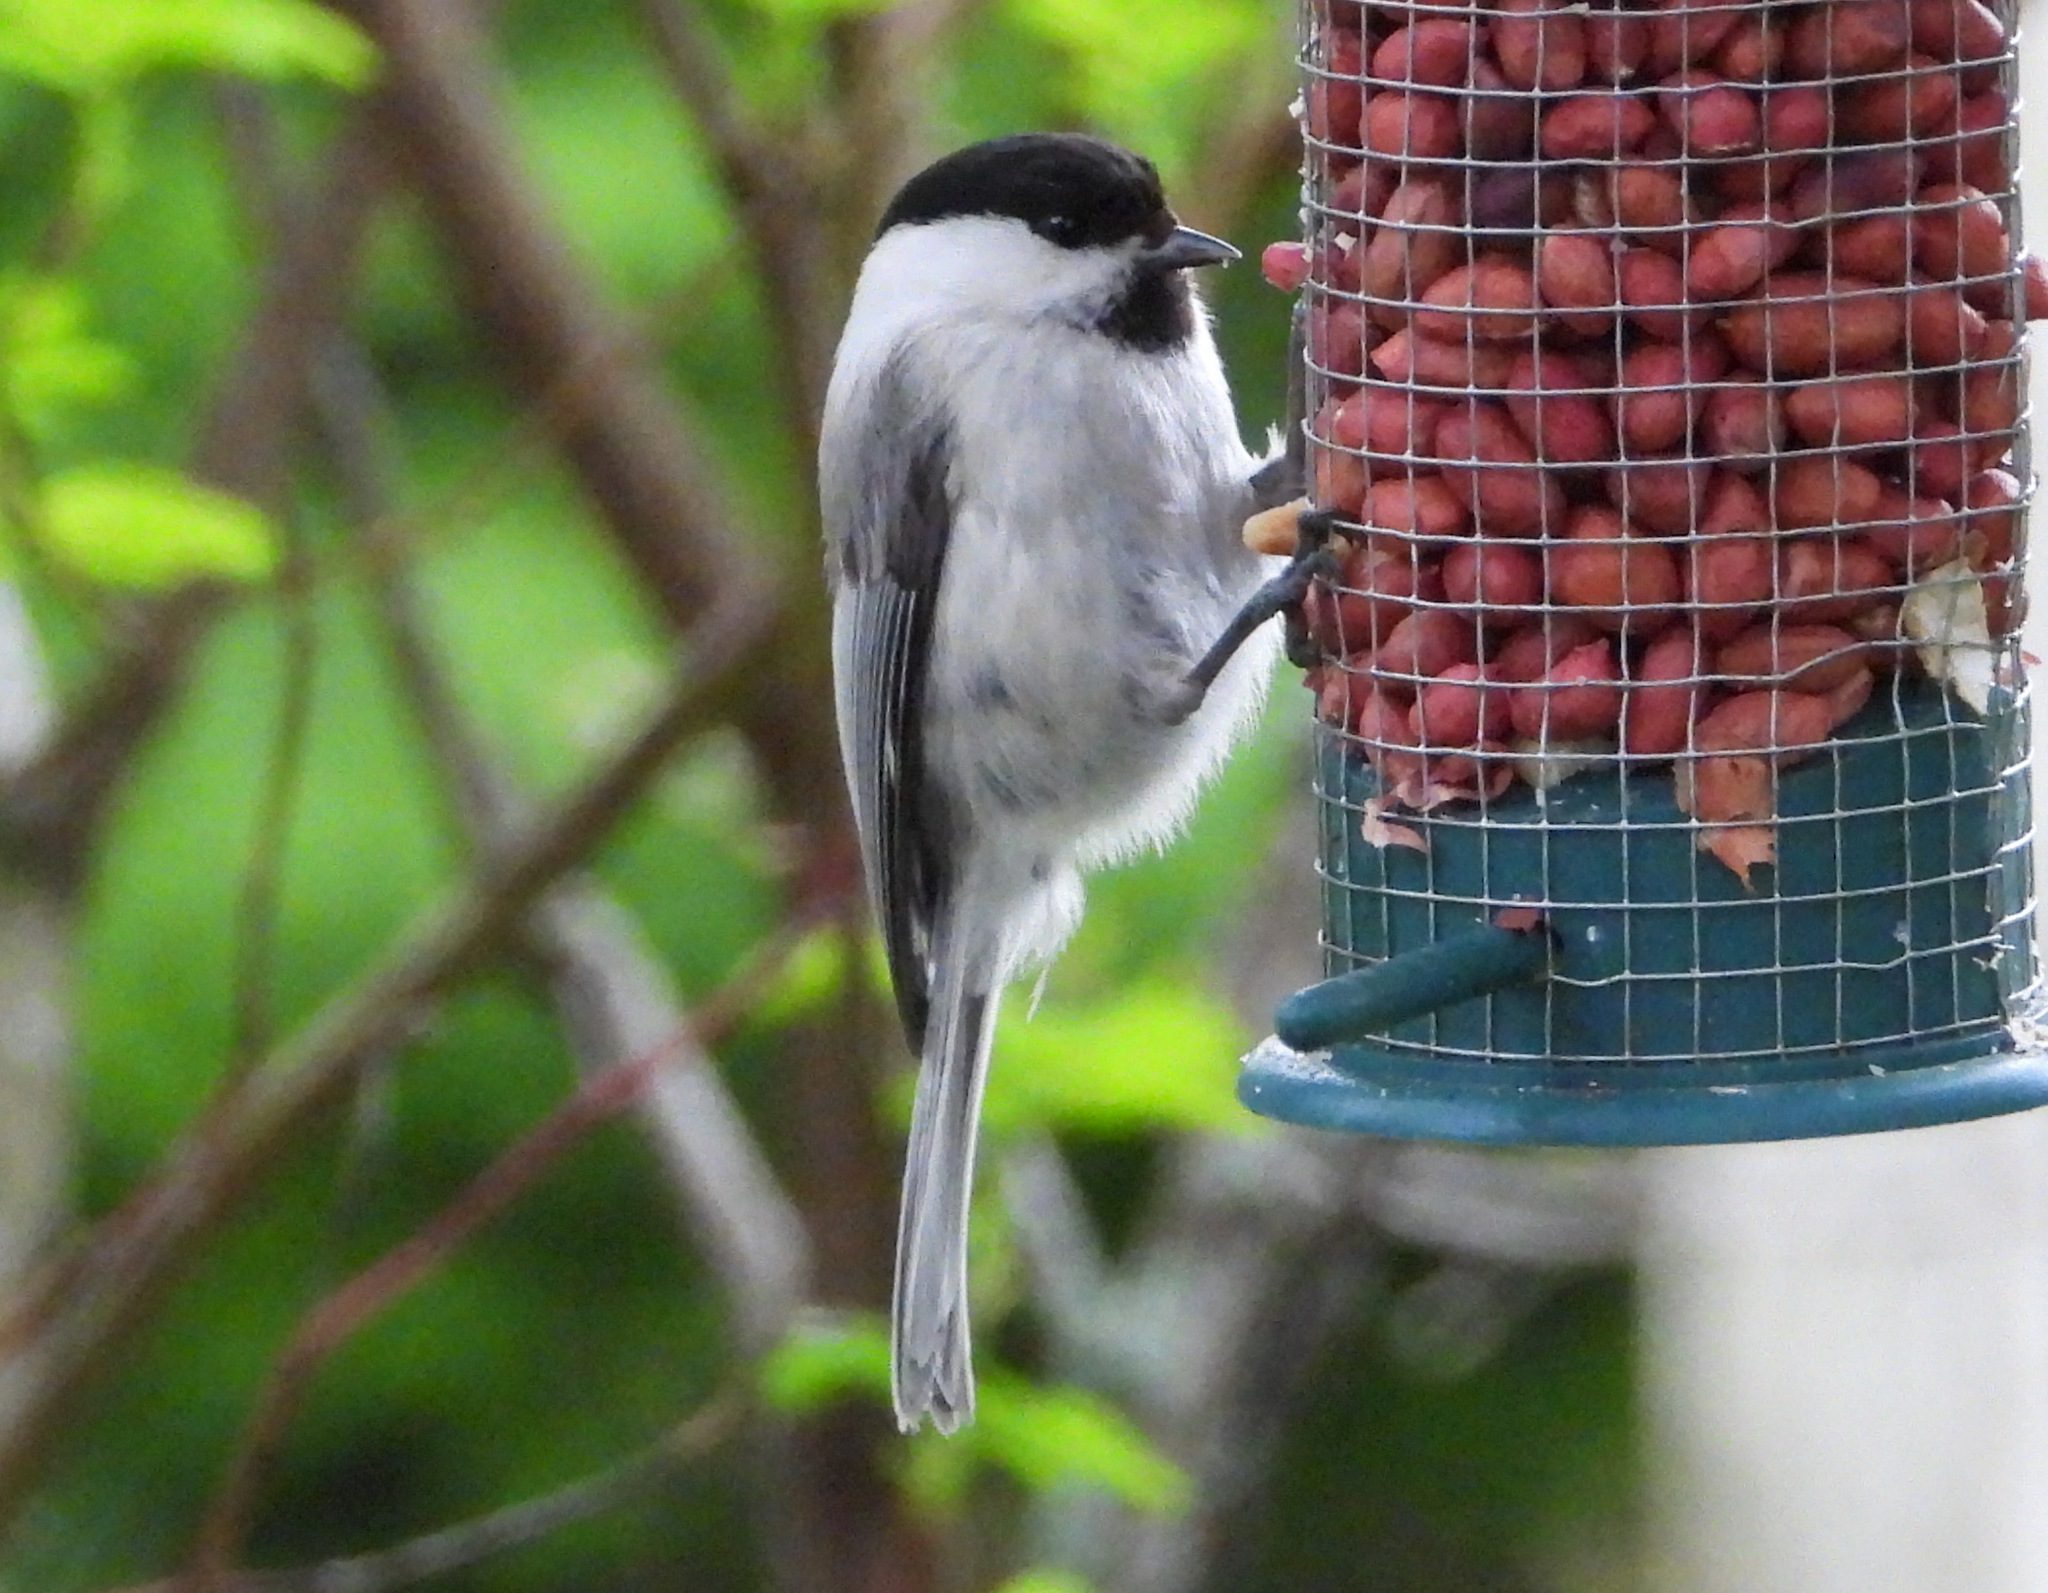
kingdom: Animalia
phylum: Chordata
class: Aves
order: Passeriformes
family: Paridae
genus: Poecile
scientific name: Poecile montanus
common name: Willow tit
